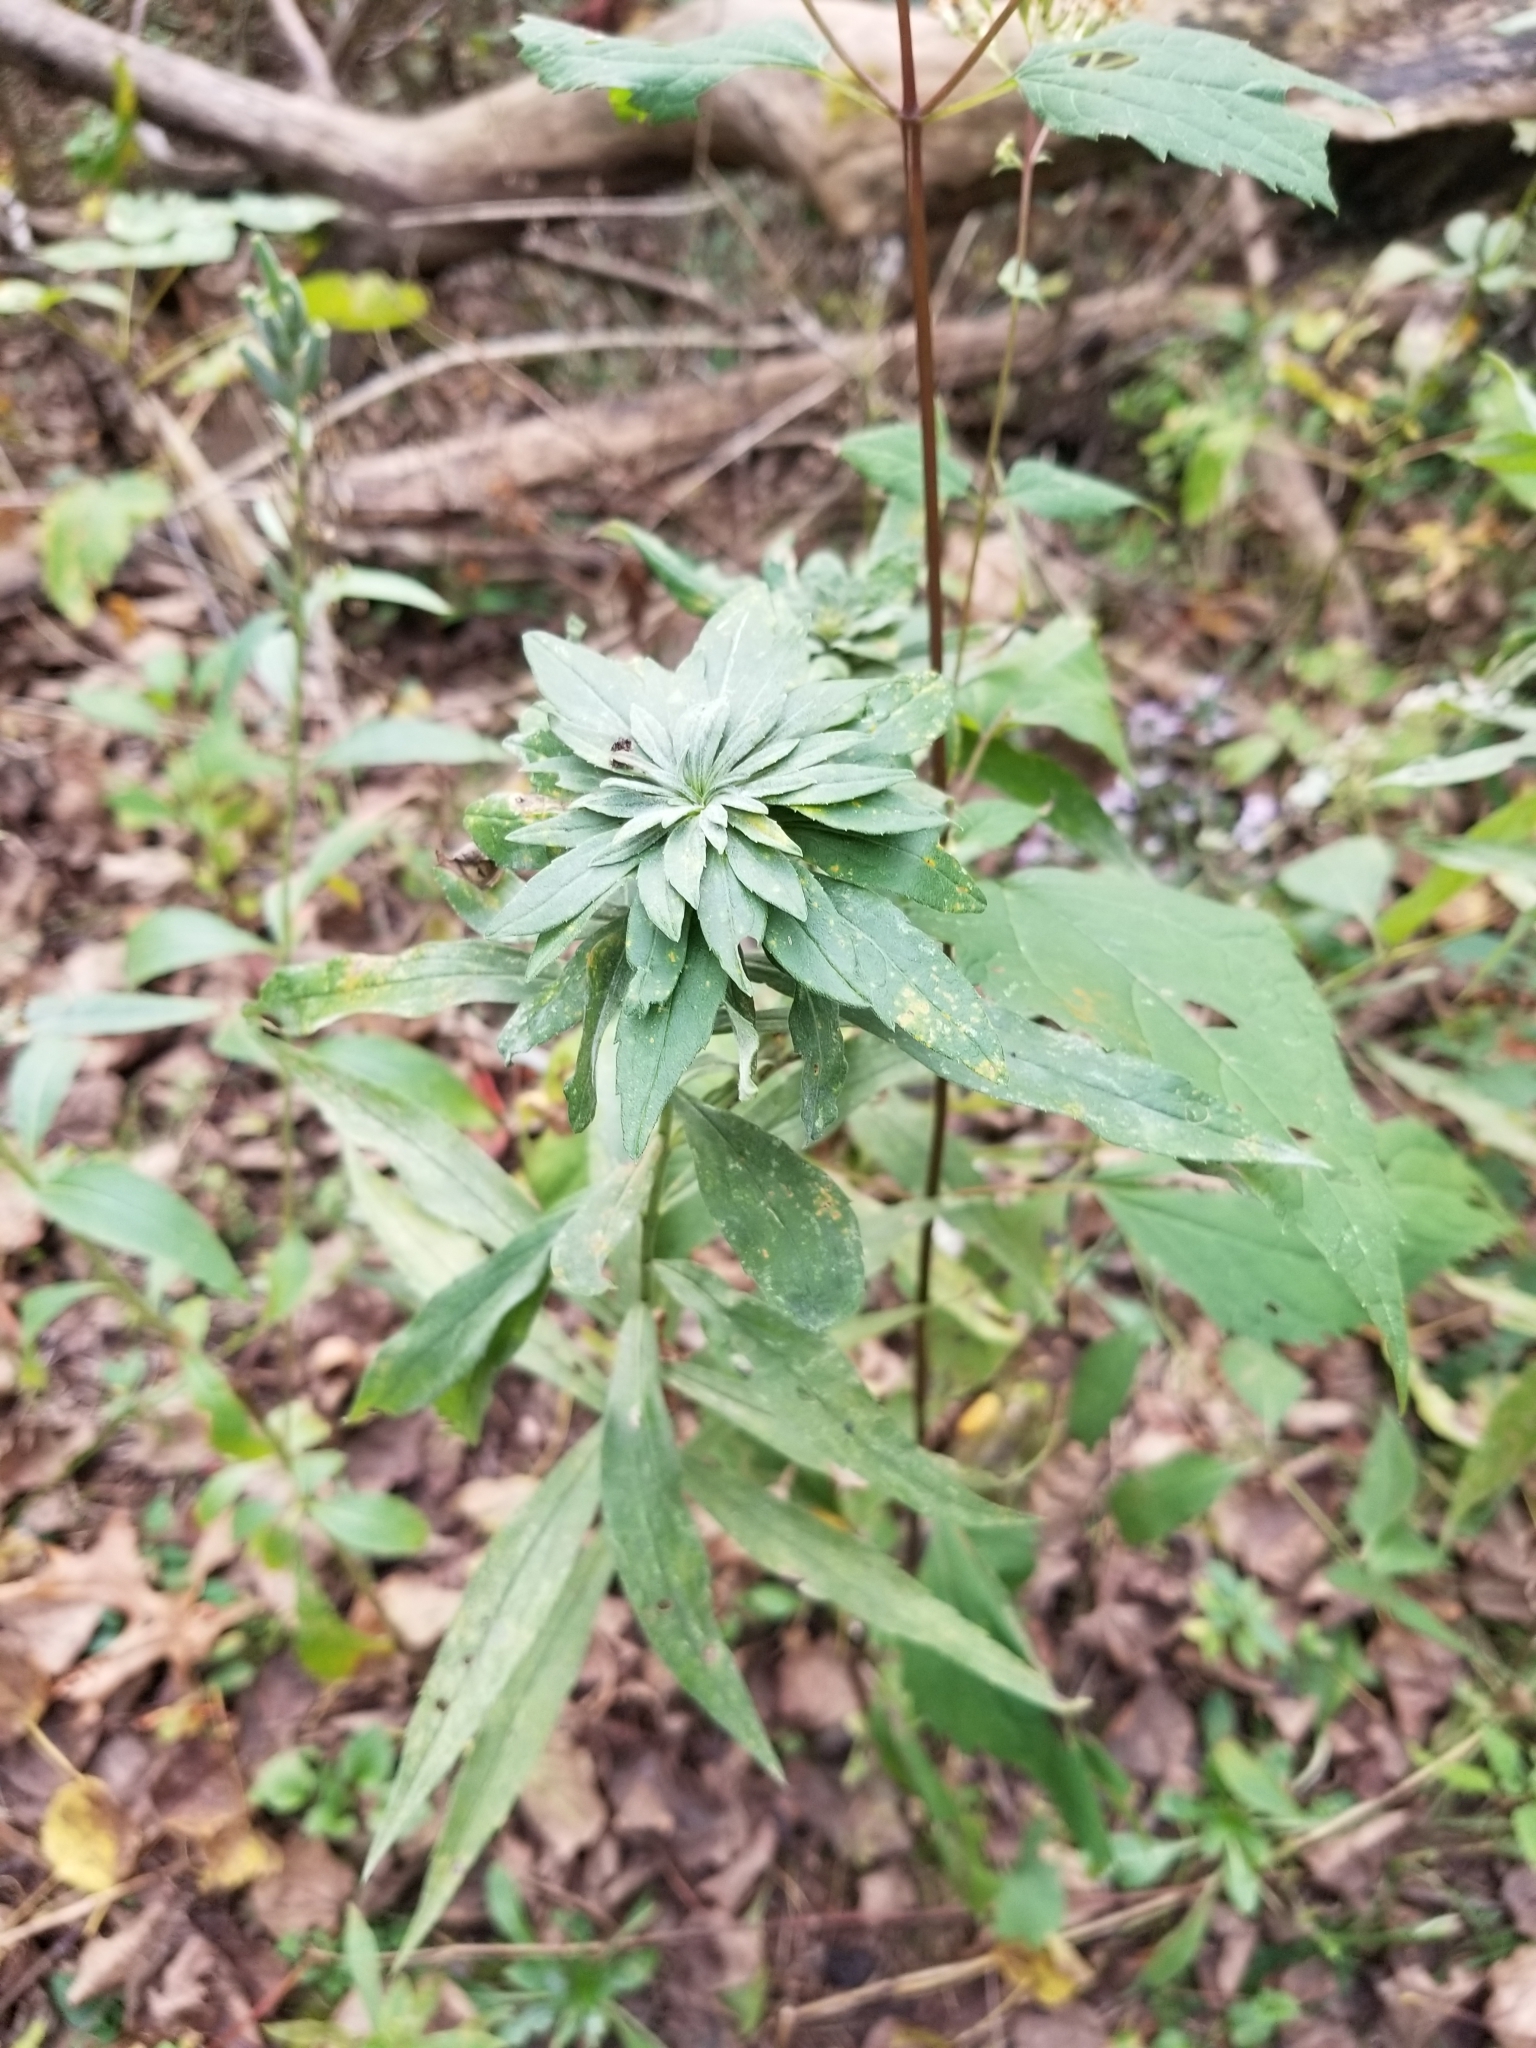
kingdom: Animalia
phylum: Arthropoda
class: Insecta
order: Diptera
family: Tephritidae
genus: Procecidochares
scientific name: Procecidochares atra
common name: Goldenrod brussels sprout gall fly
